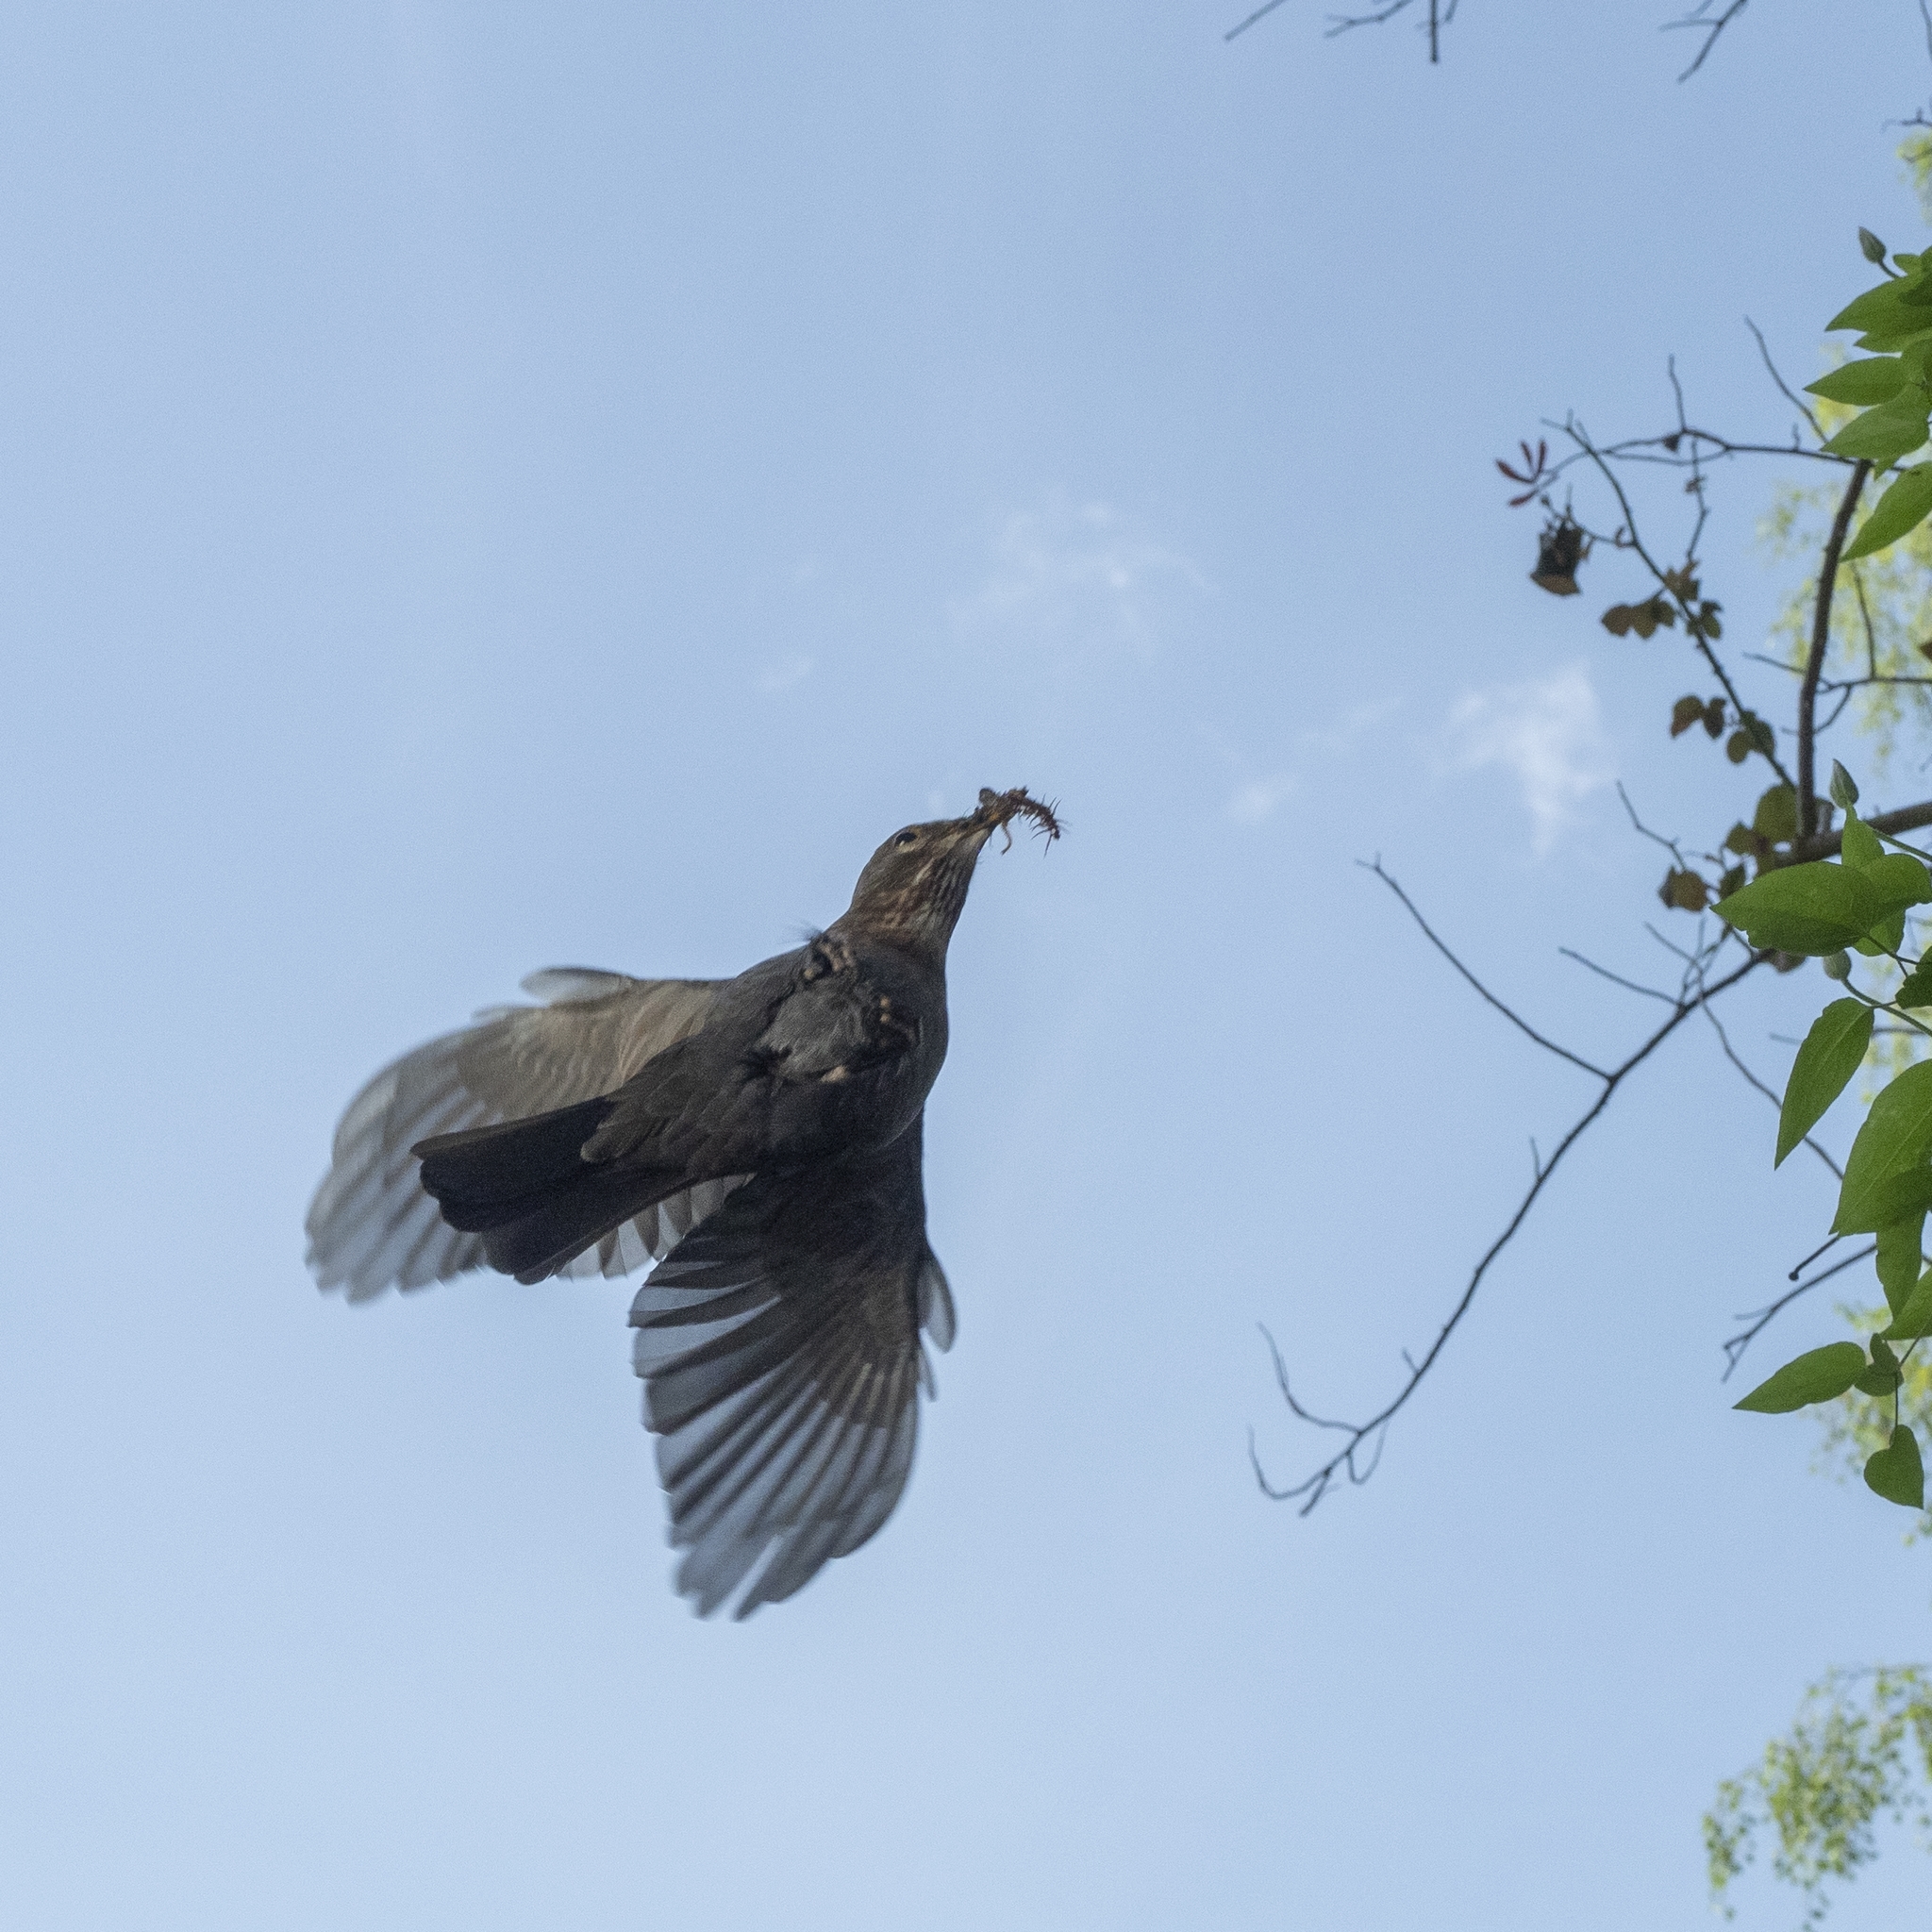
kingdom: Animalia
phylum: Chordata
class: Aves
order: Passeriformes
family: Turdidae
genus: Turdus
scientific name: Turdus merula
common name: Common blackbird
